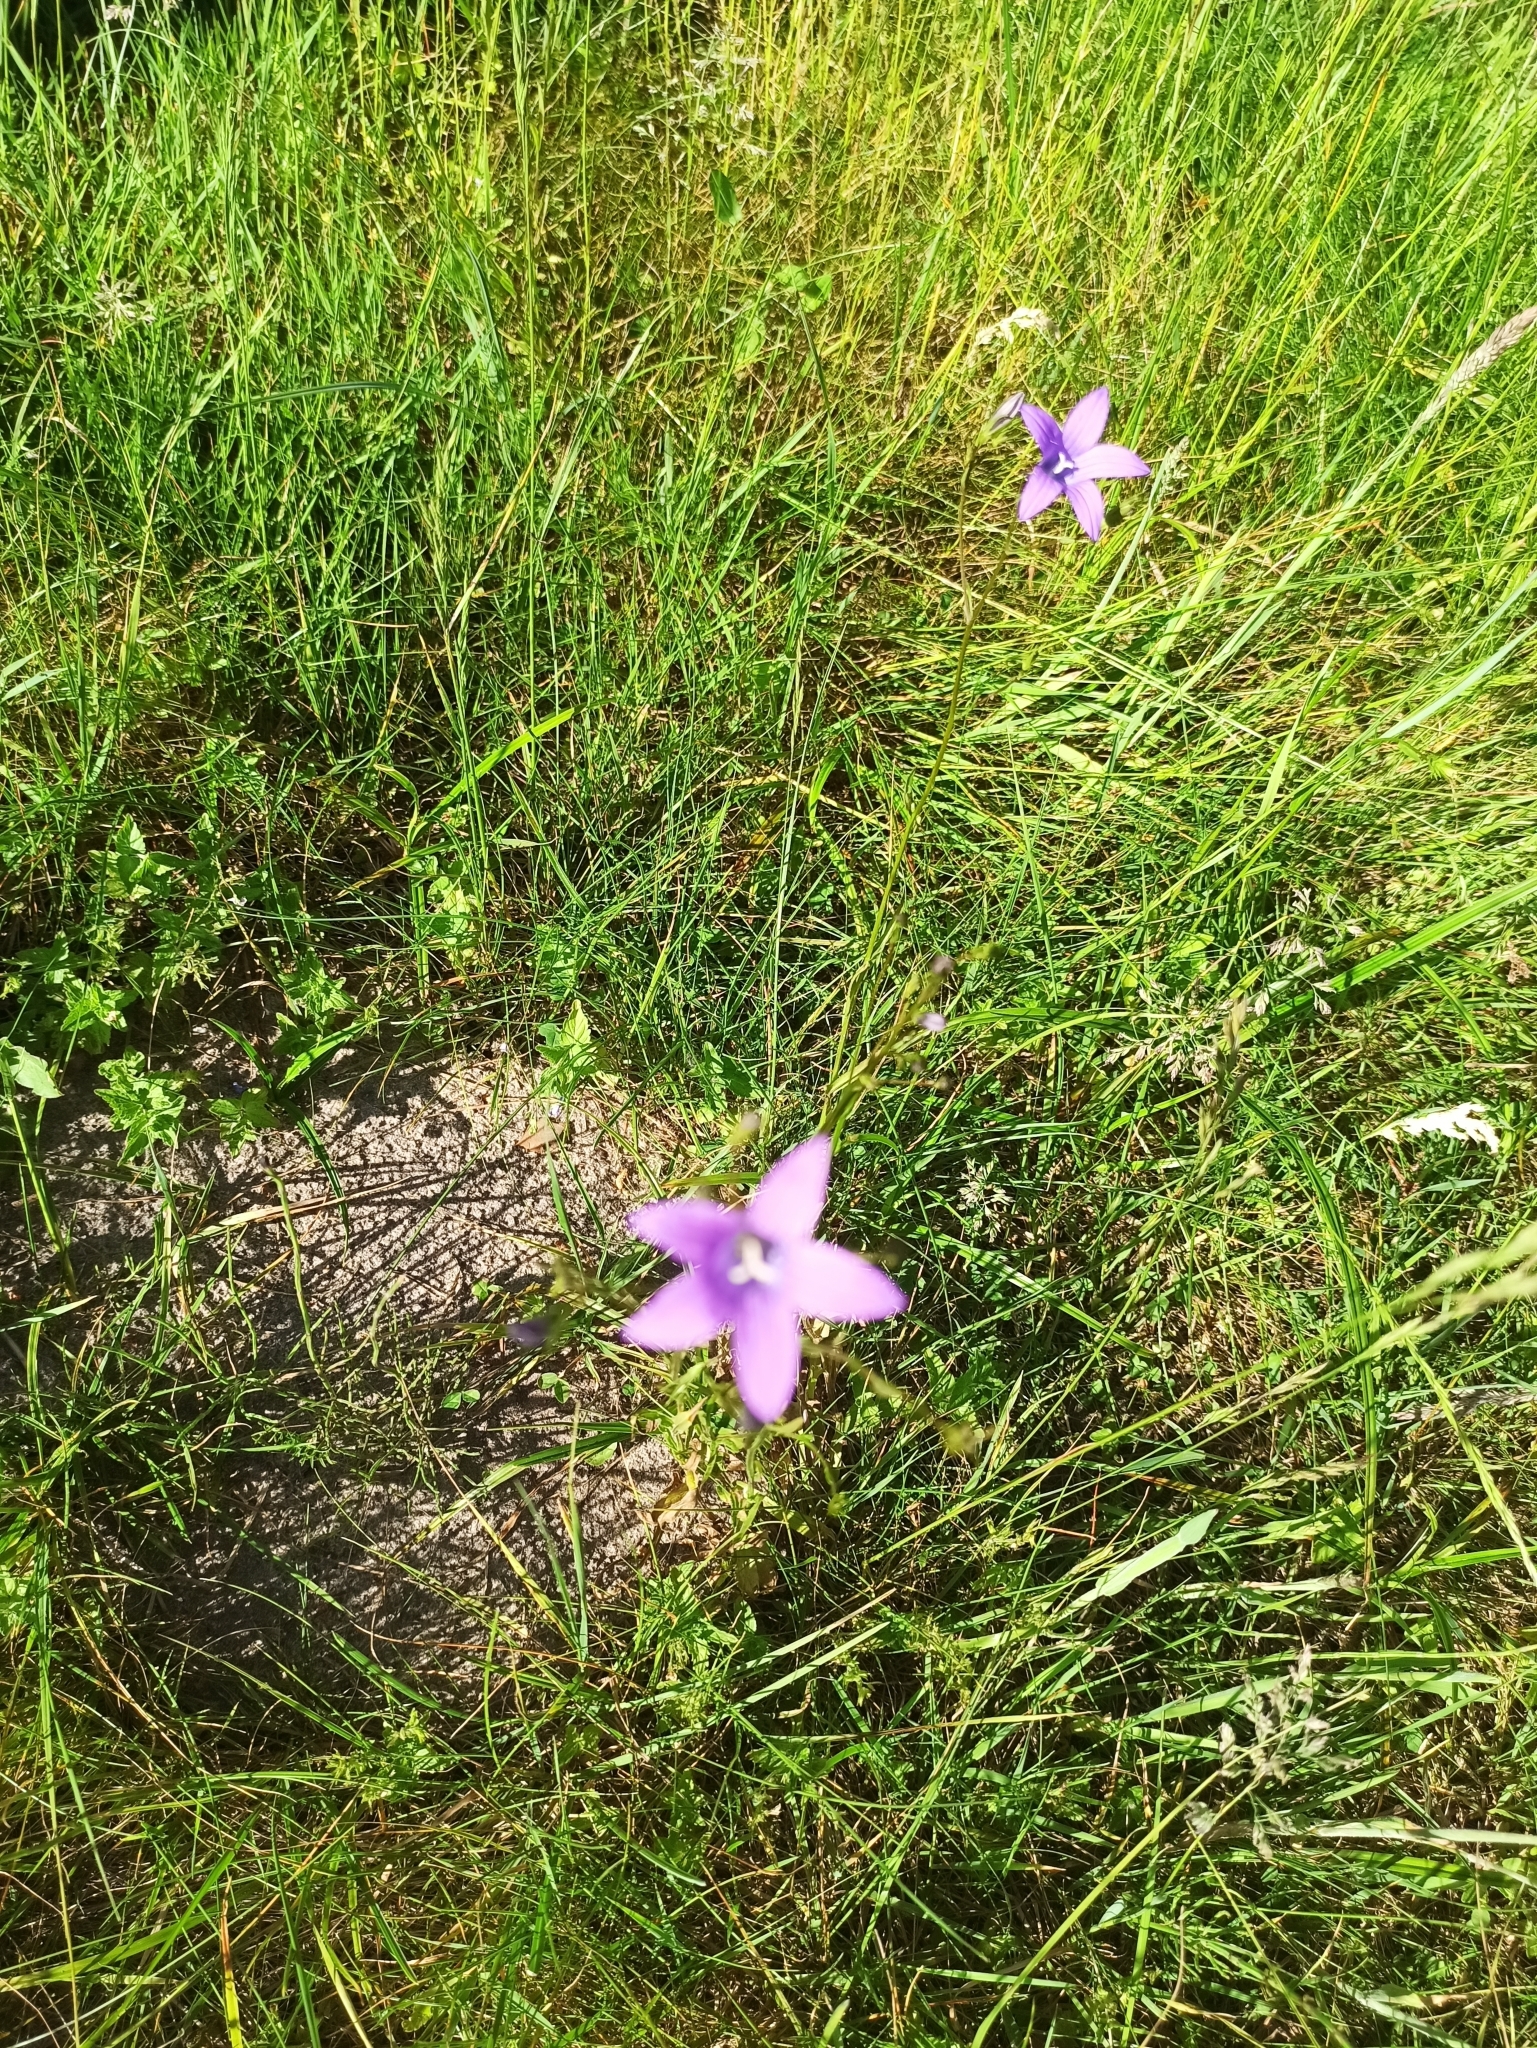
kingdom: Plantae
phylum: Tracheophyta
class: Magnoliopsida
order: Asterales
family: Campanulaceae
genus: Campanula
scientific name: Campanula patula
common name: Spreading bellflower
